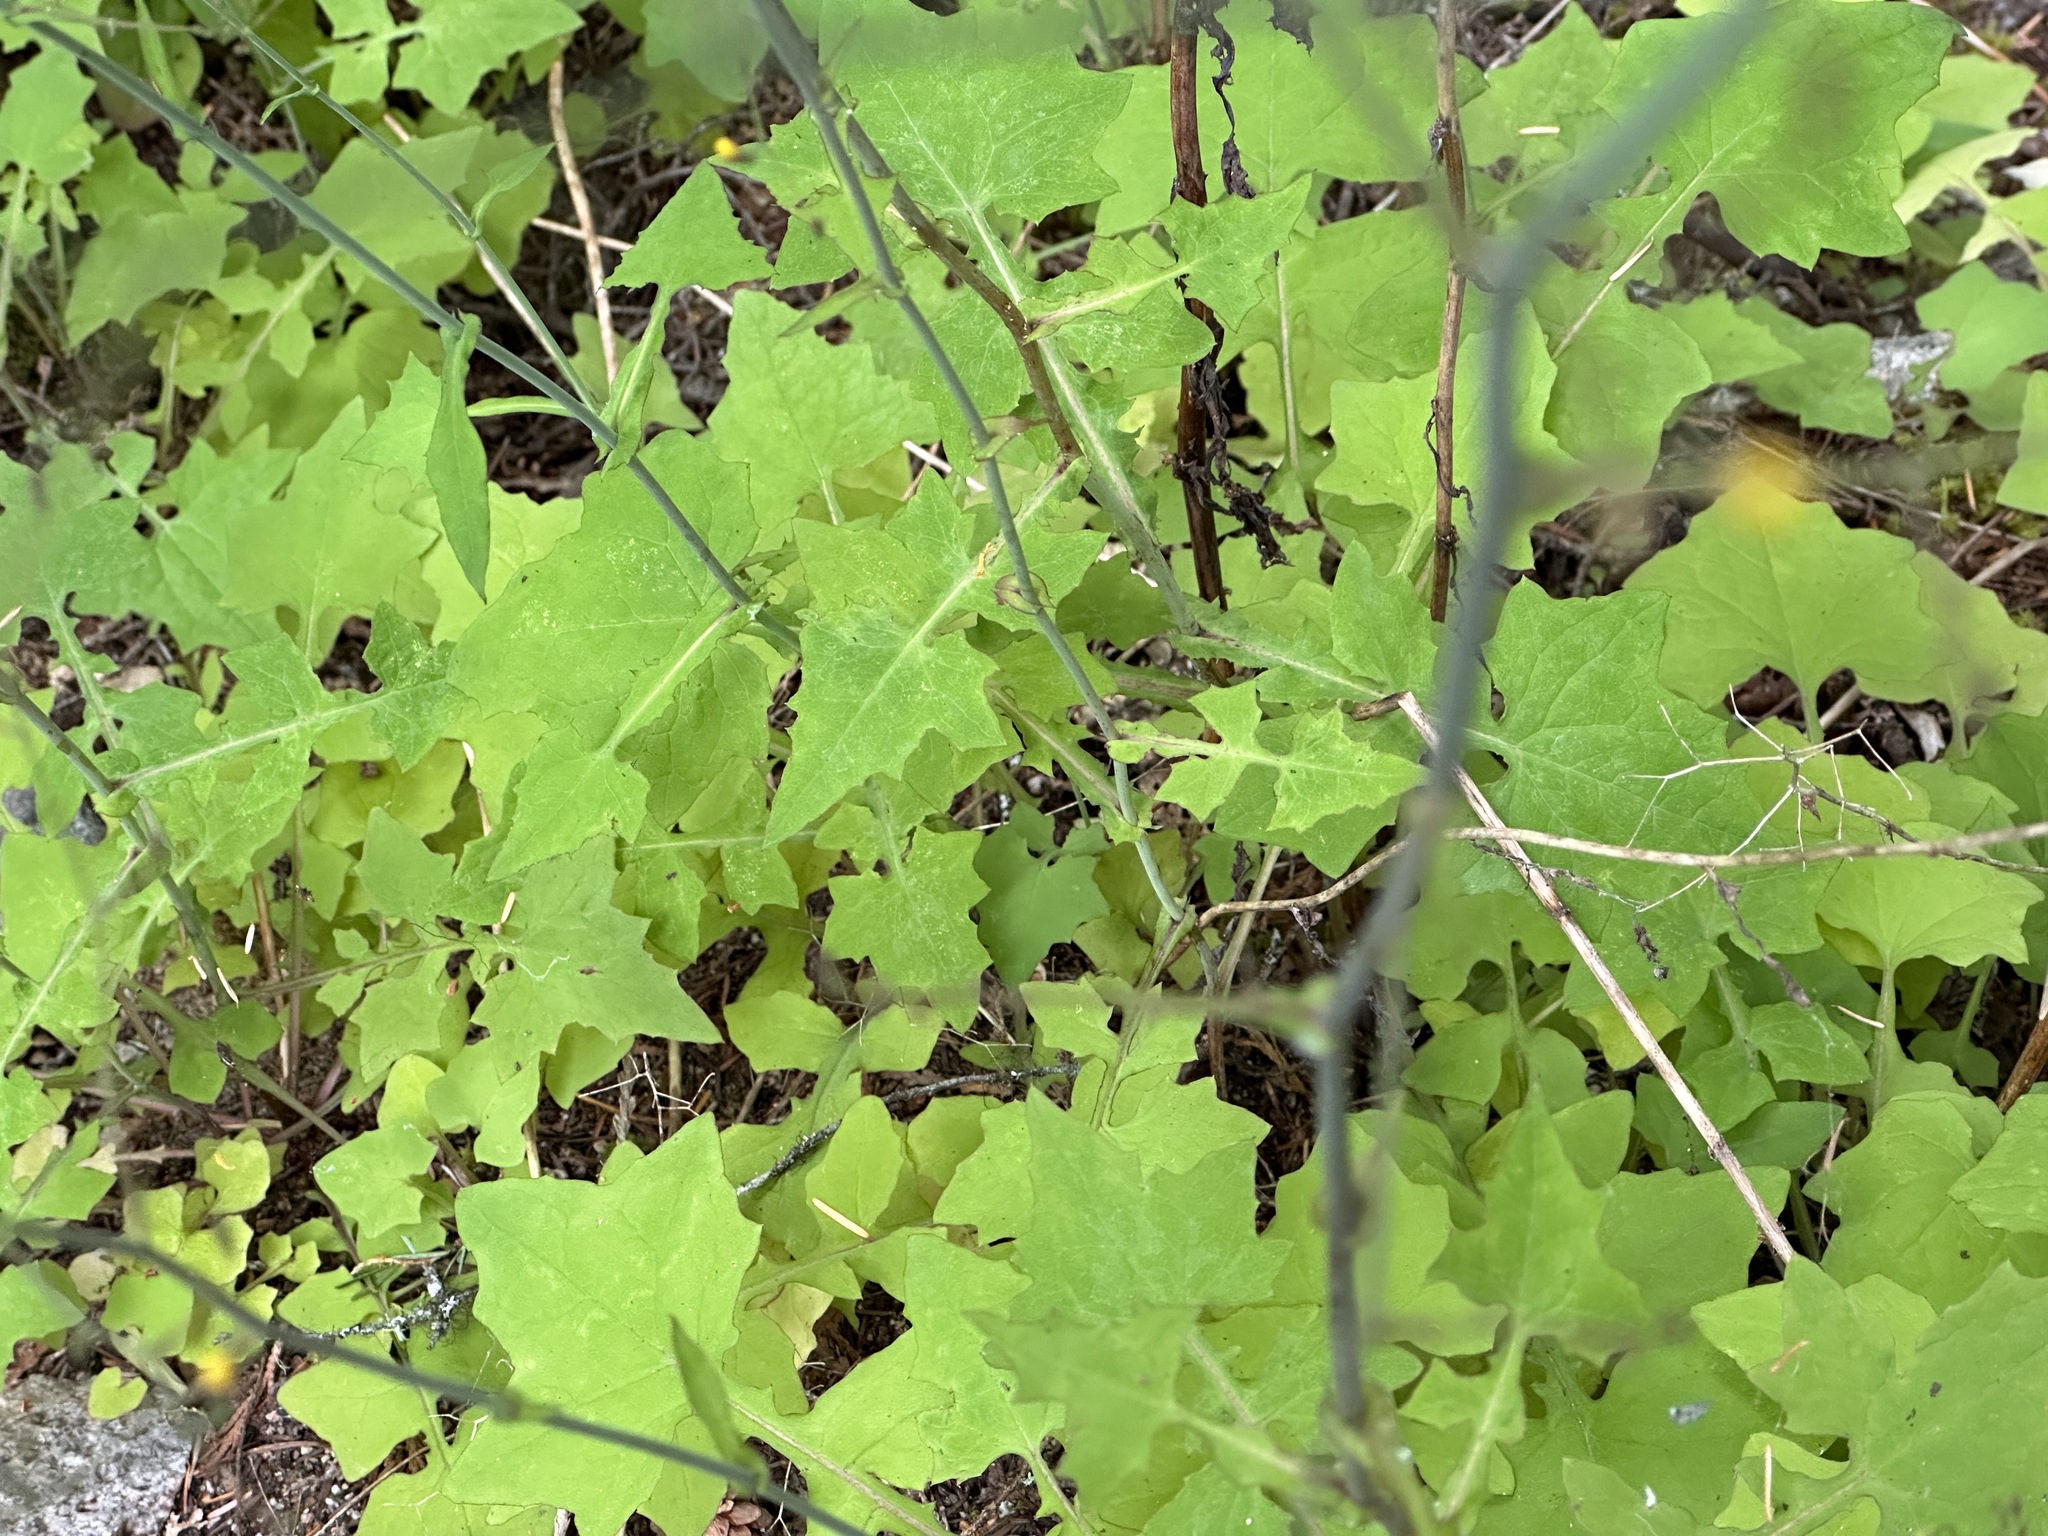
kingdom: Plantae
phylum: Tracheophyta
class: Magnoliopsida
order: Asterales
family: Asteraceae
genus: Mycelis
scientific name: Mycelis muralis
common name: Wall lettuce
